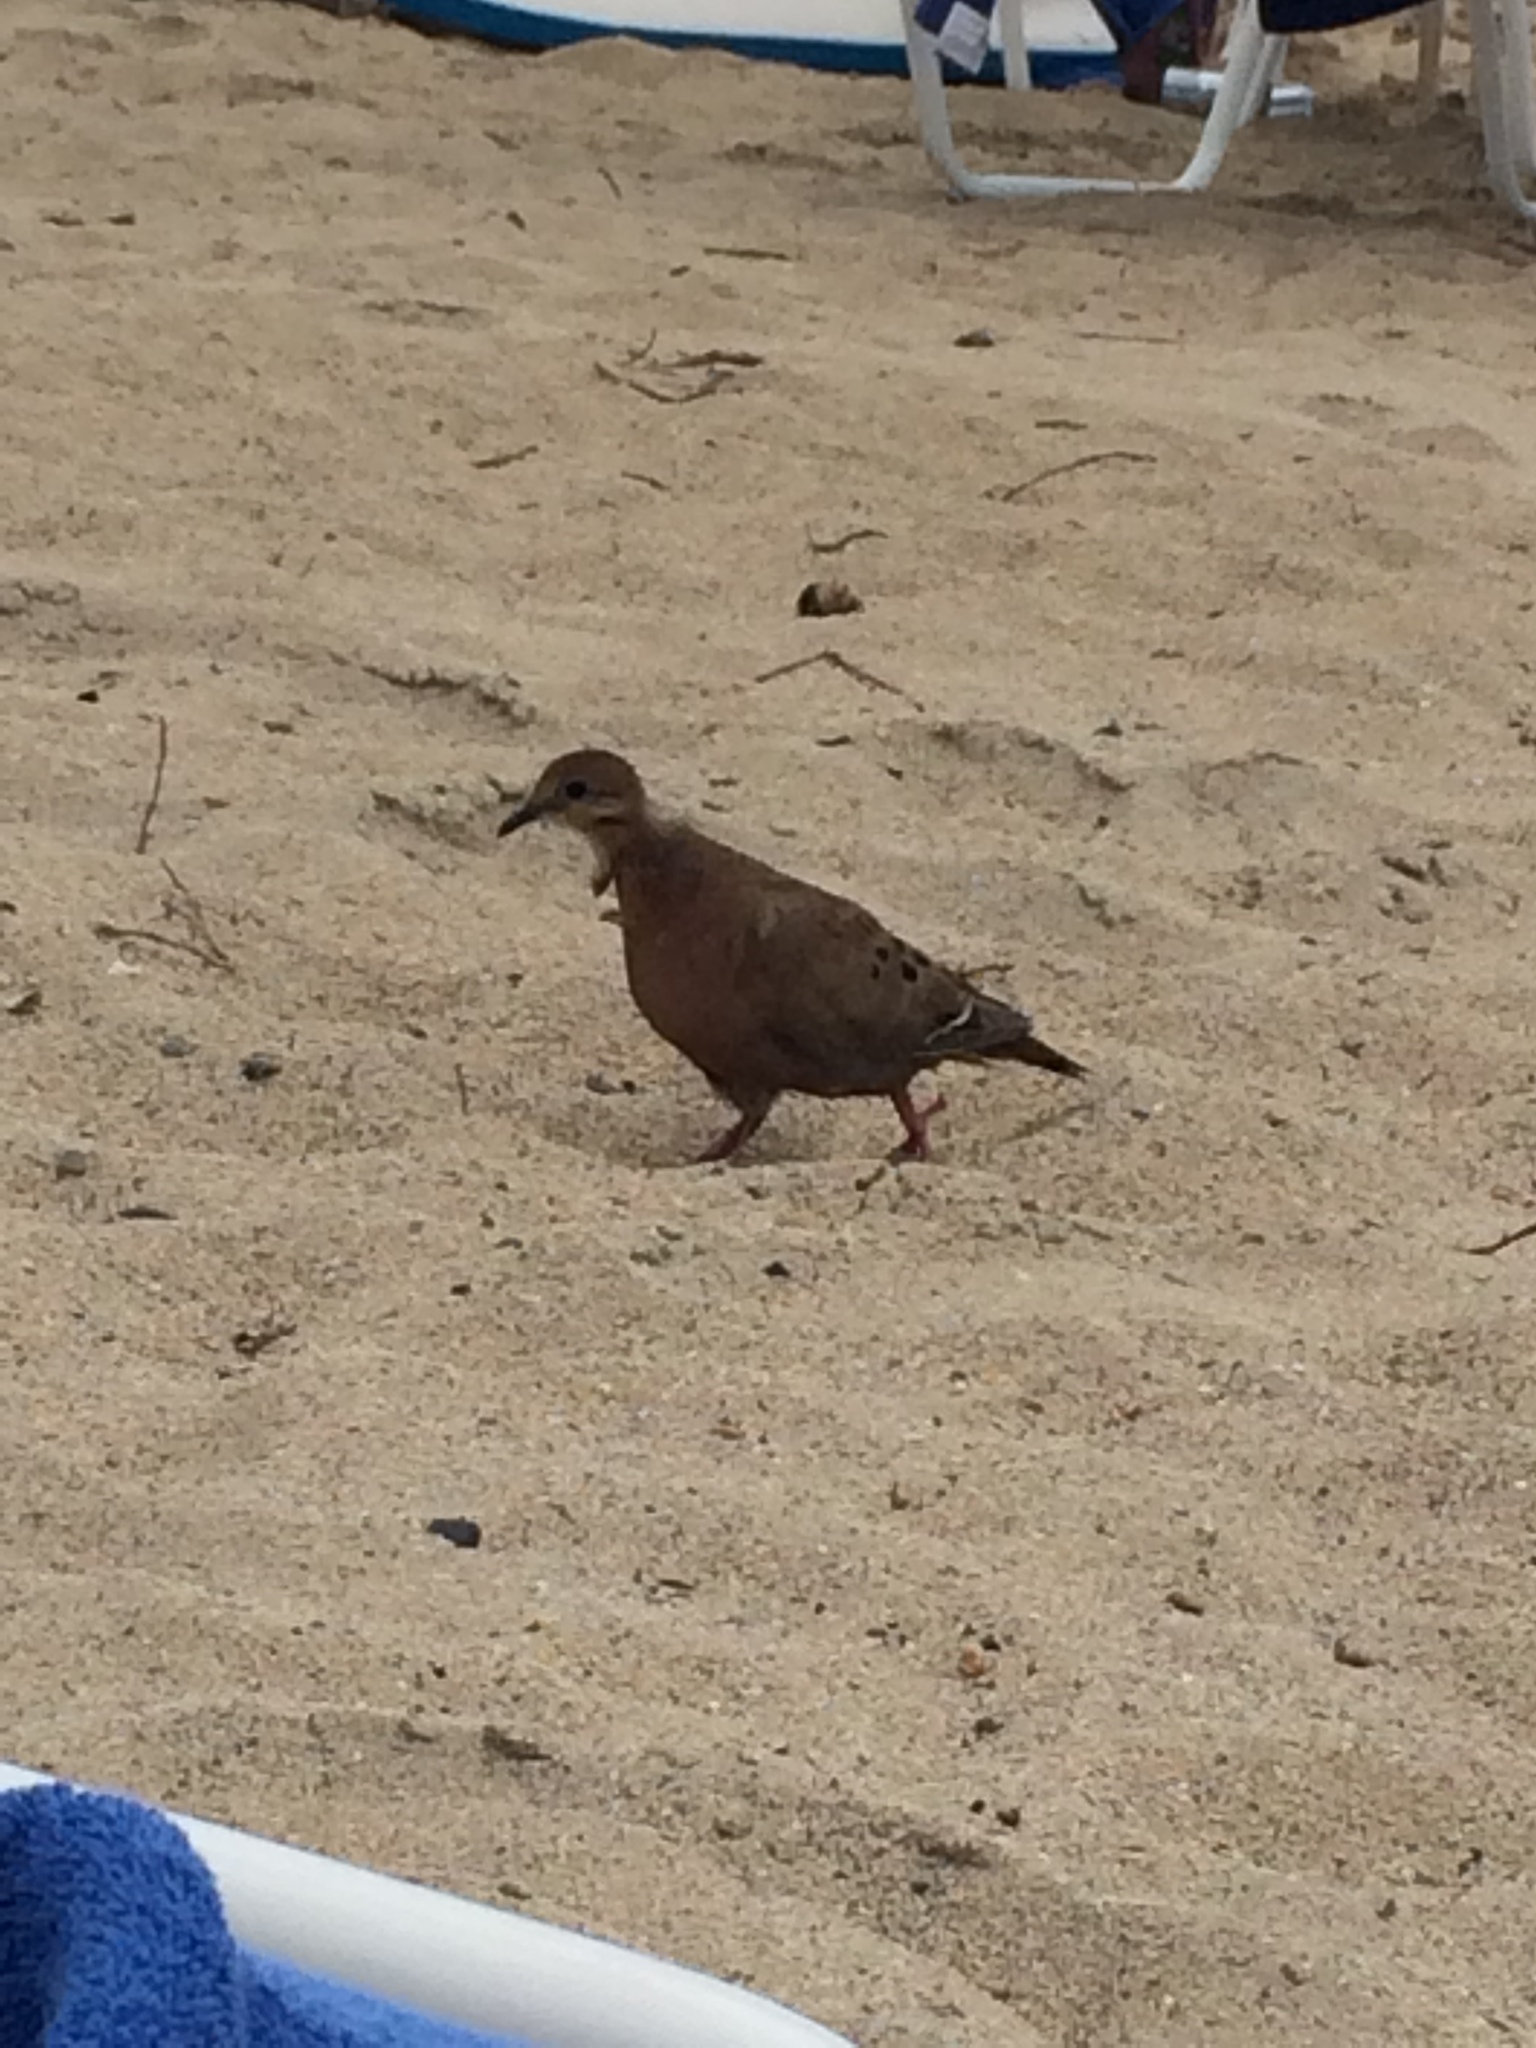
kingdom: Animalia
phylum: Chordata
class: Aves
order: Columbiformes
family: Columbidae
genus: Zenaida
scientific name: Zenaida aurita
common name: Zenaida dove
